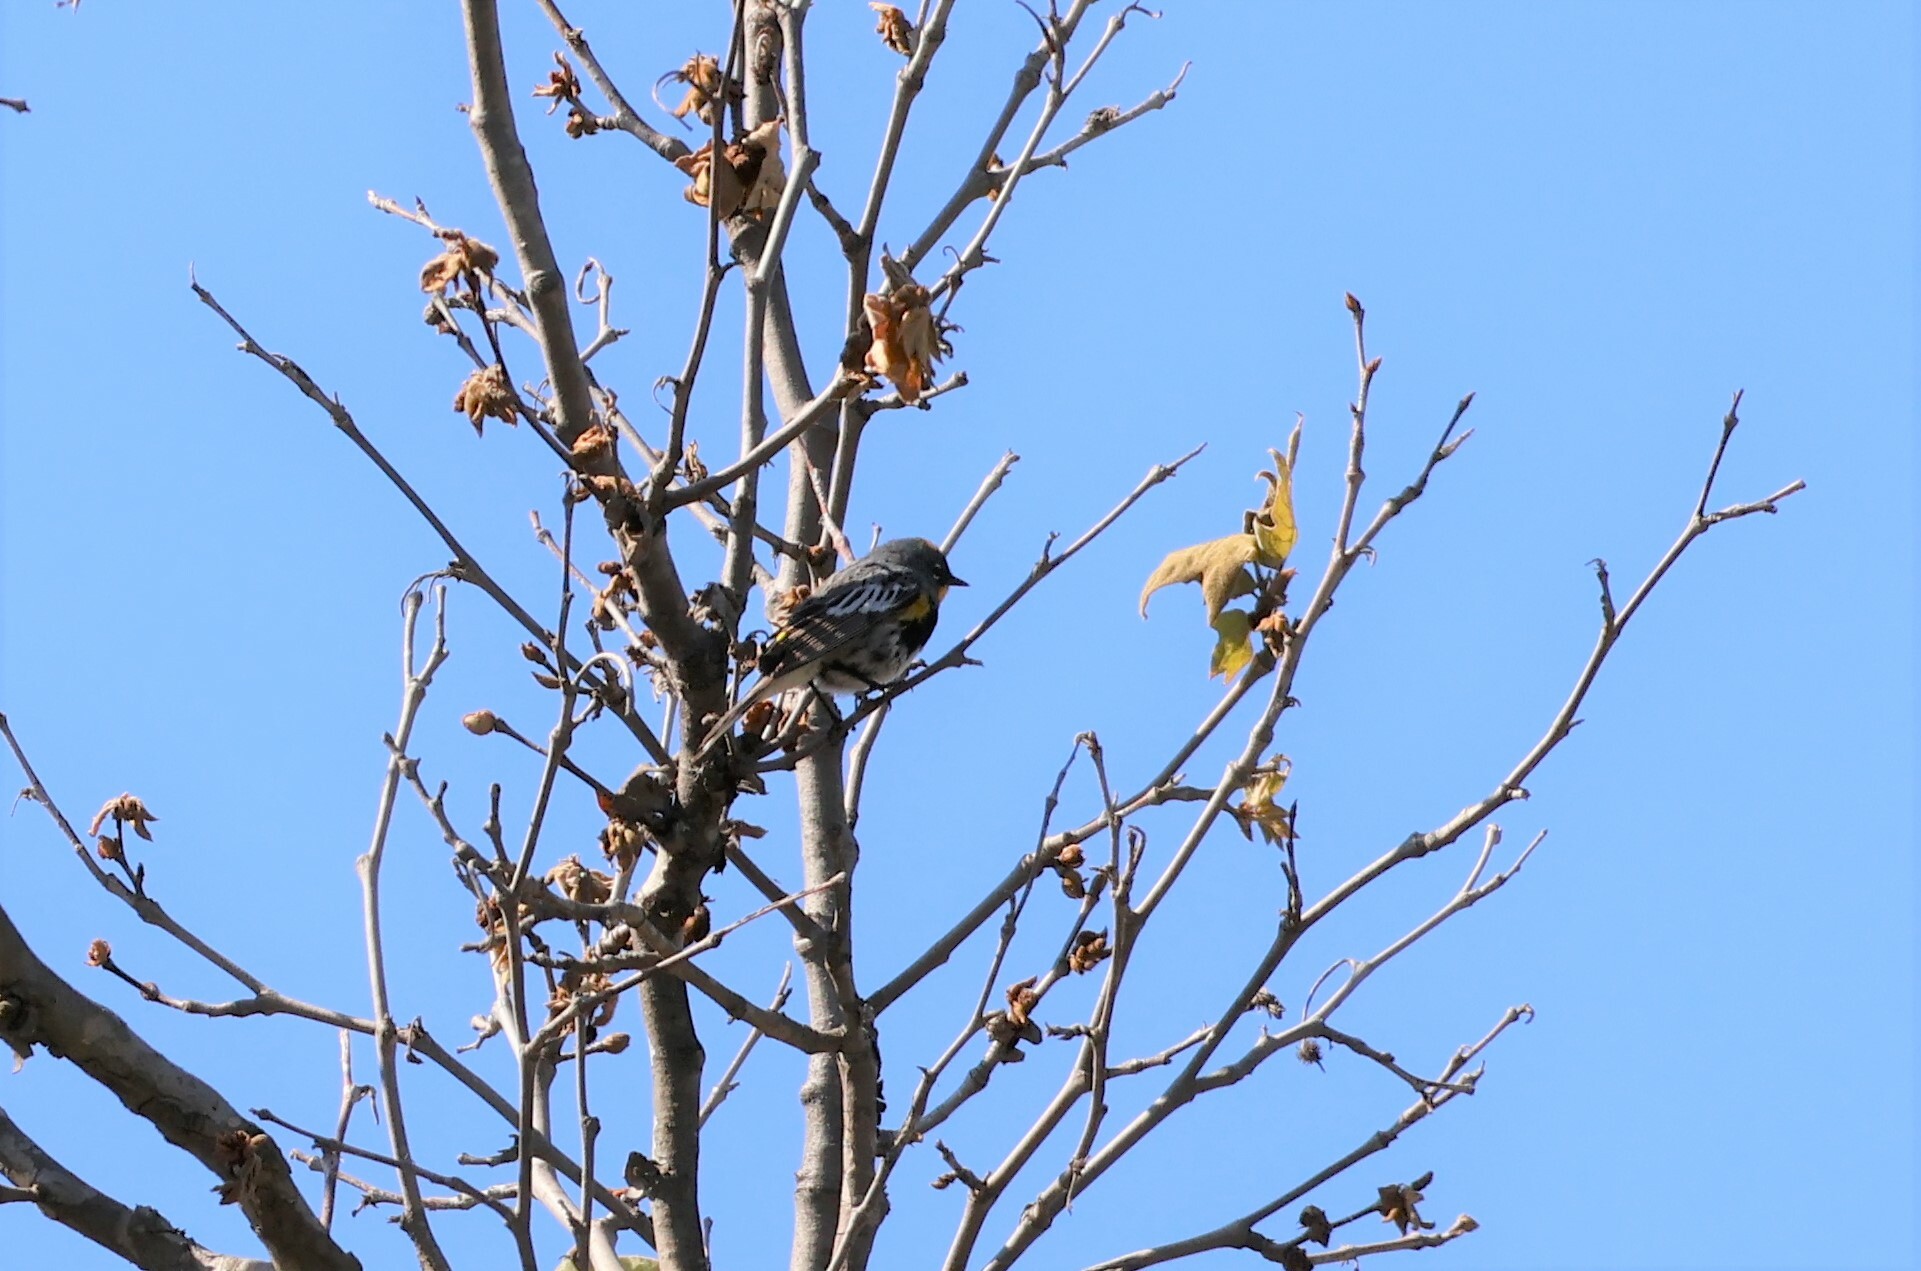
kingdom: Animalia
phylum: Chordata
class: Aves
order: Passeriformes
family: Parulidae
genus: Setophaga
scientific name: Setophaga auduboni
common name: Audubon's warbler
